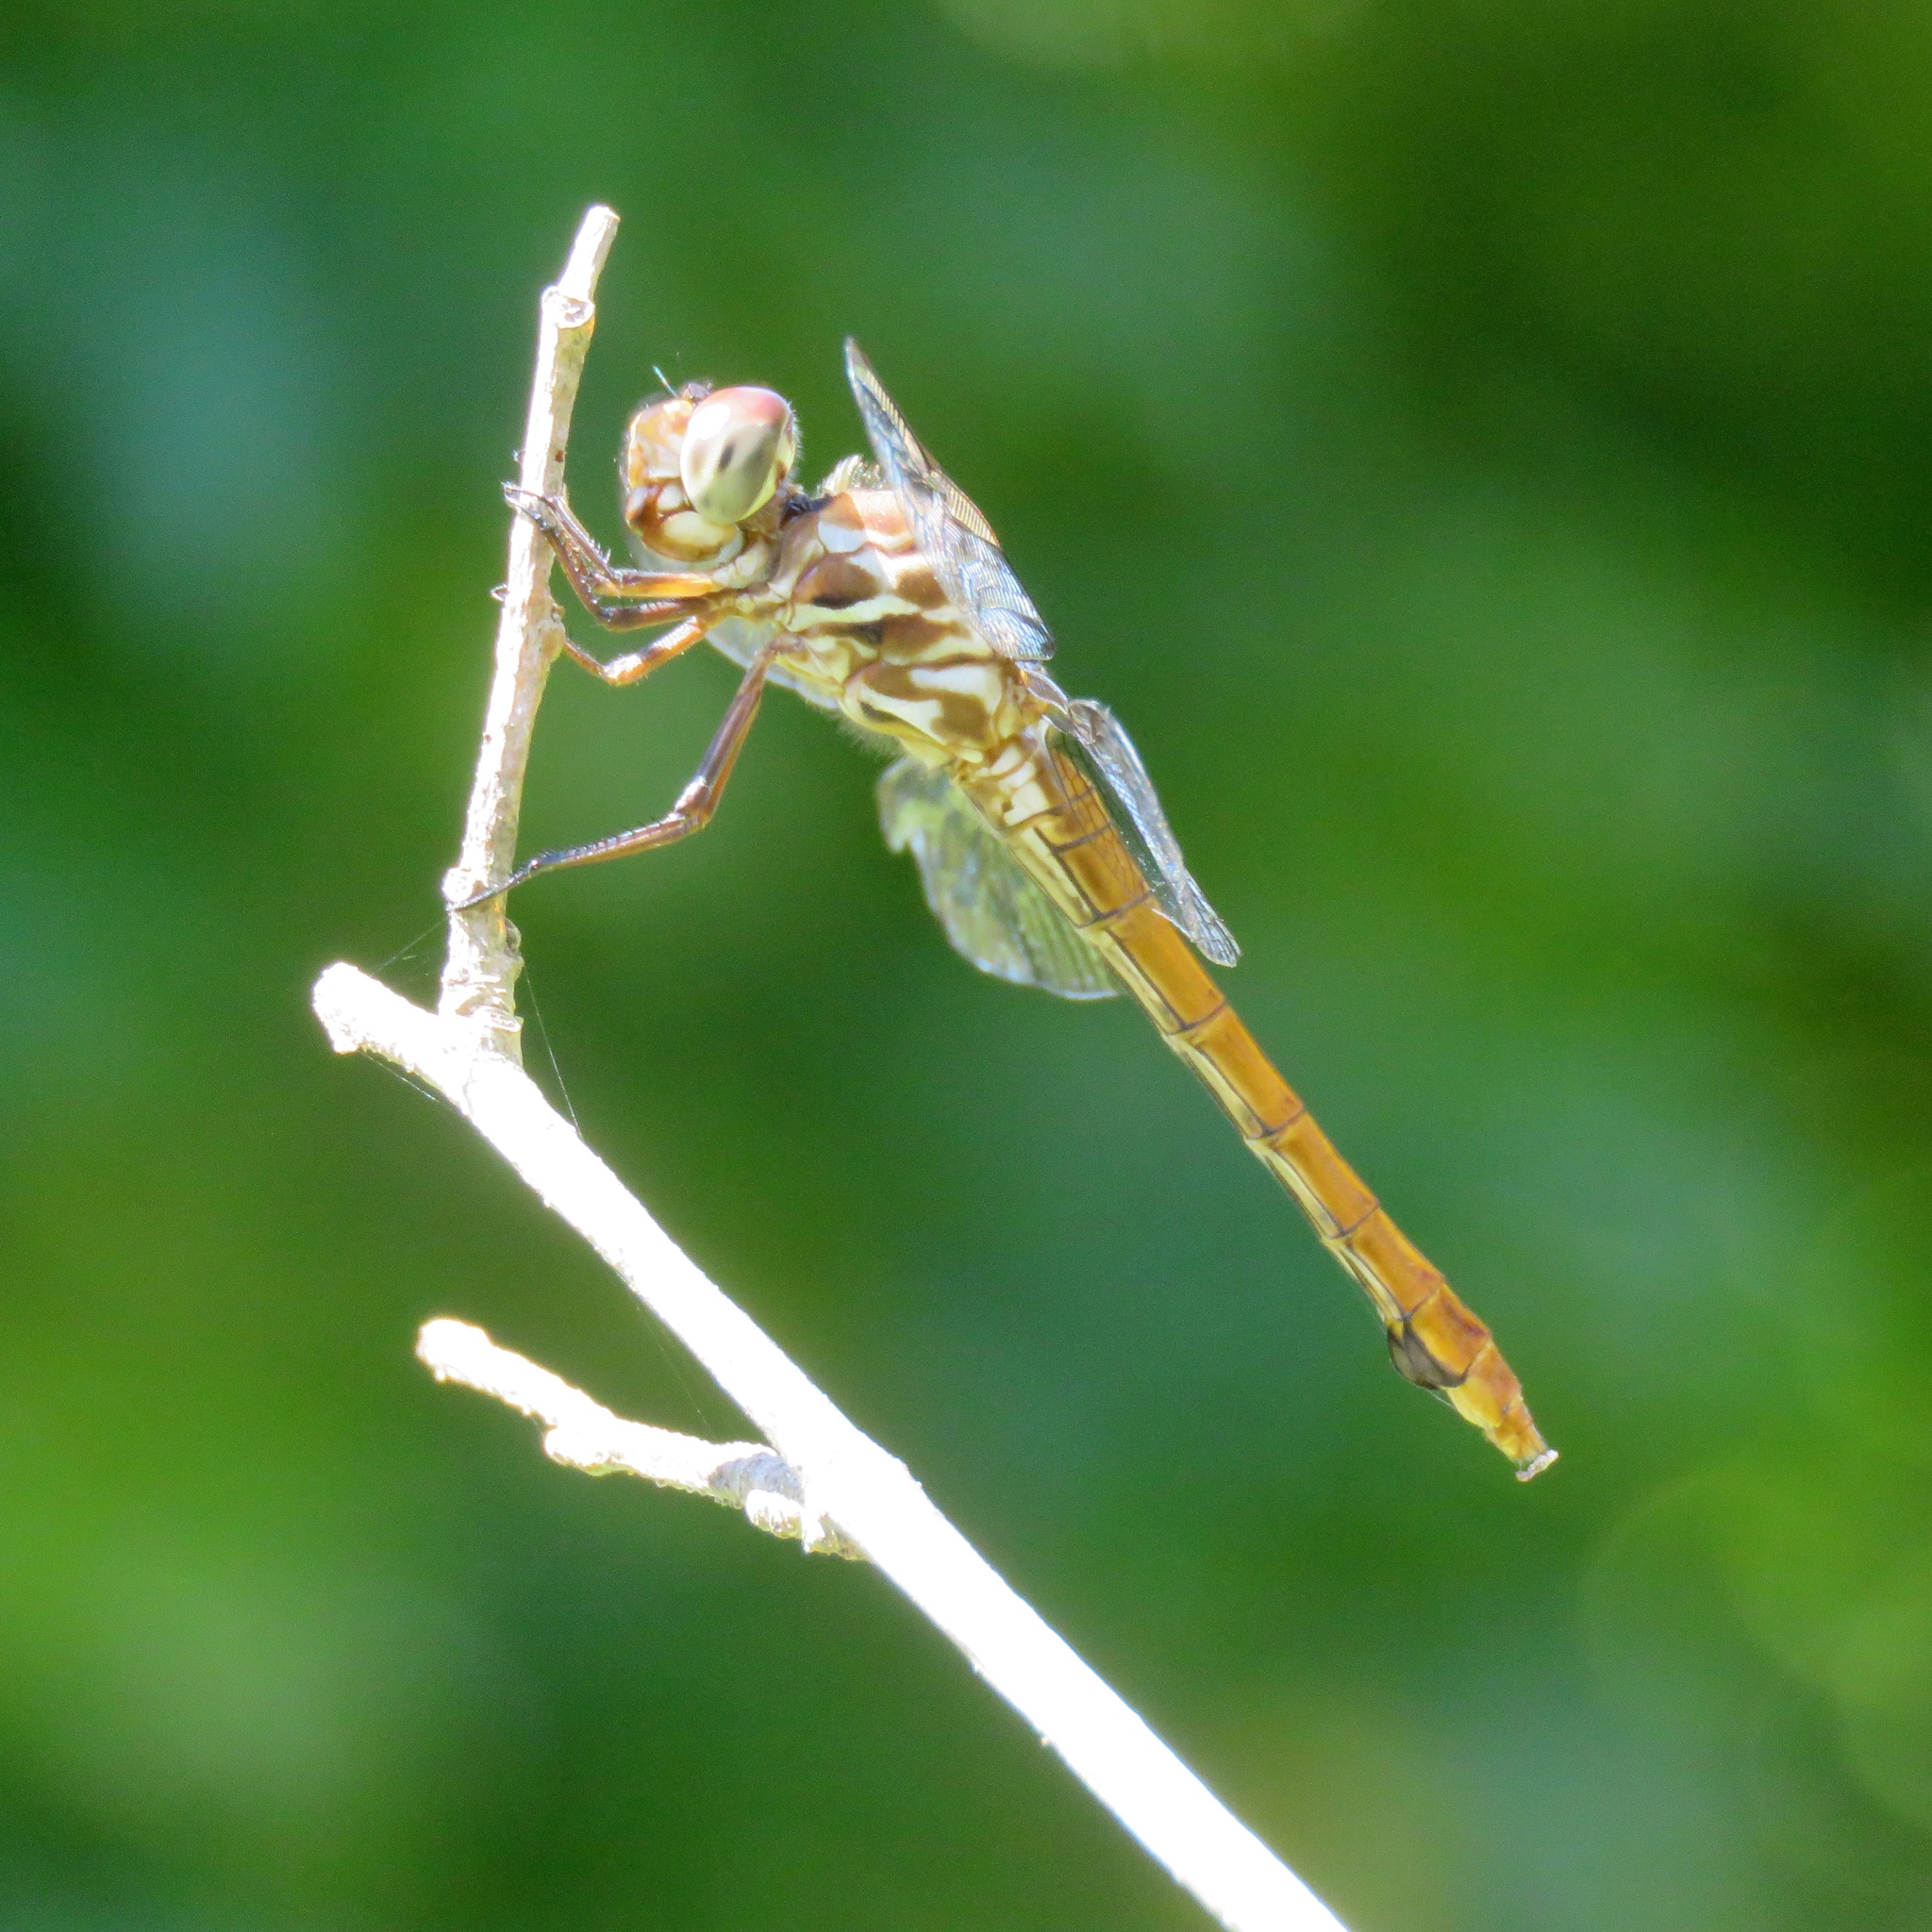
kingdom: Animalia
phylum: Arthropoda
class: Insecta
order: Odonata
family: Libellulidae
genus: Orthemis
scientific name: Orthemis ferruginea
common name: Roseate skimmer
